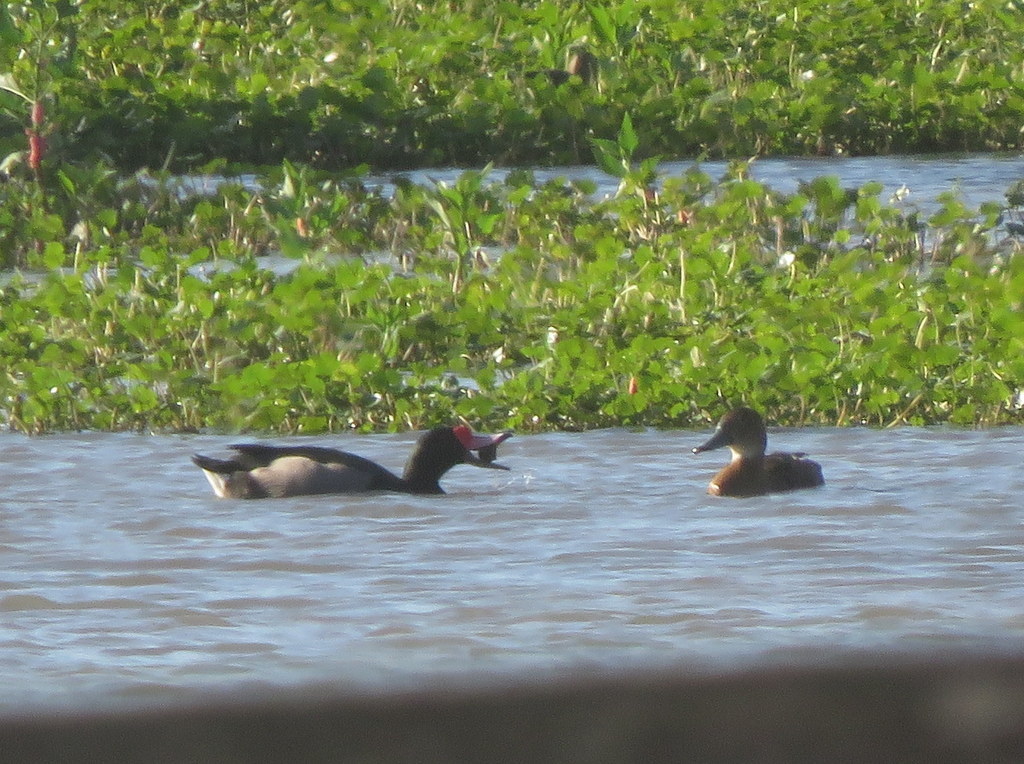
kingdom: Animalia
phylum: Chordata
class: Aves
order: Anseriformes
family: Anatidae
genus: Netta
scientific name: Netta peposaca
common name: Rosy-billed pochard
